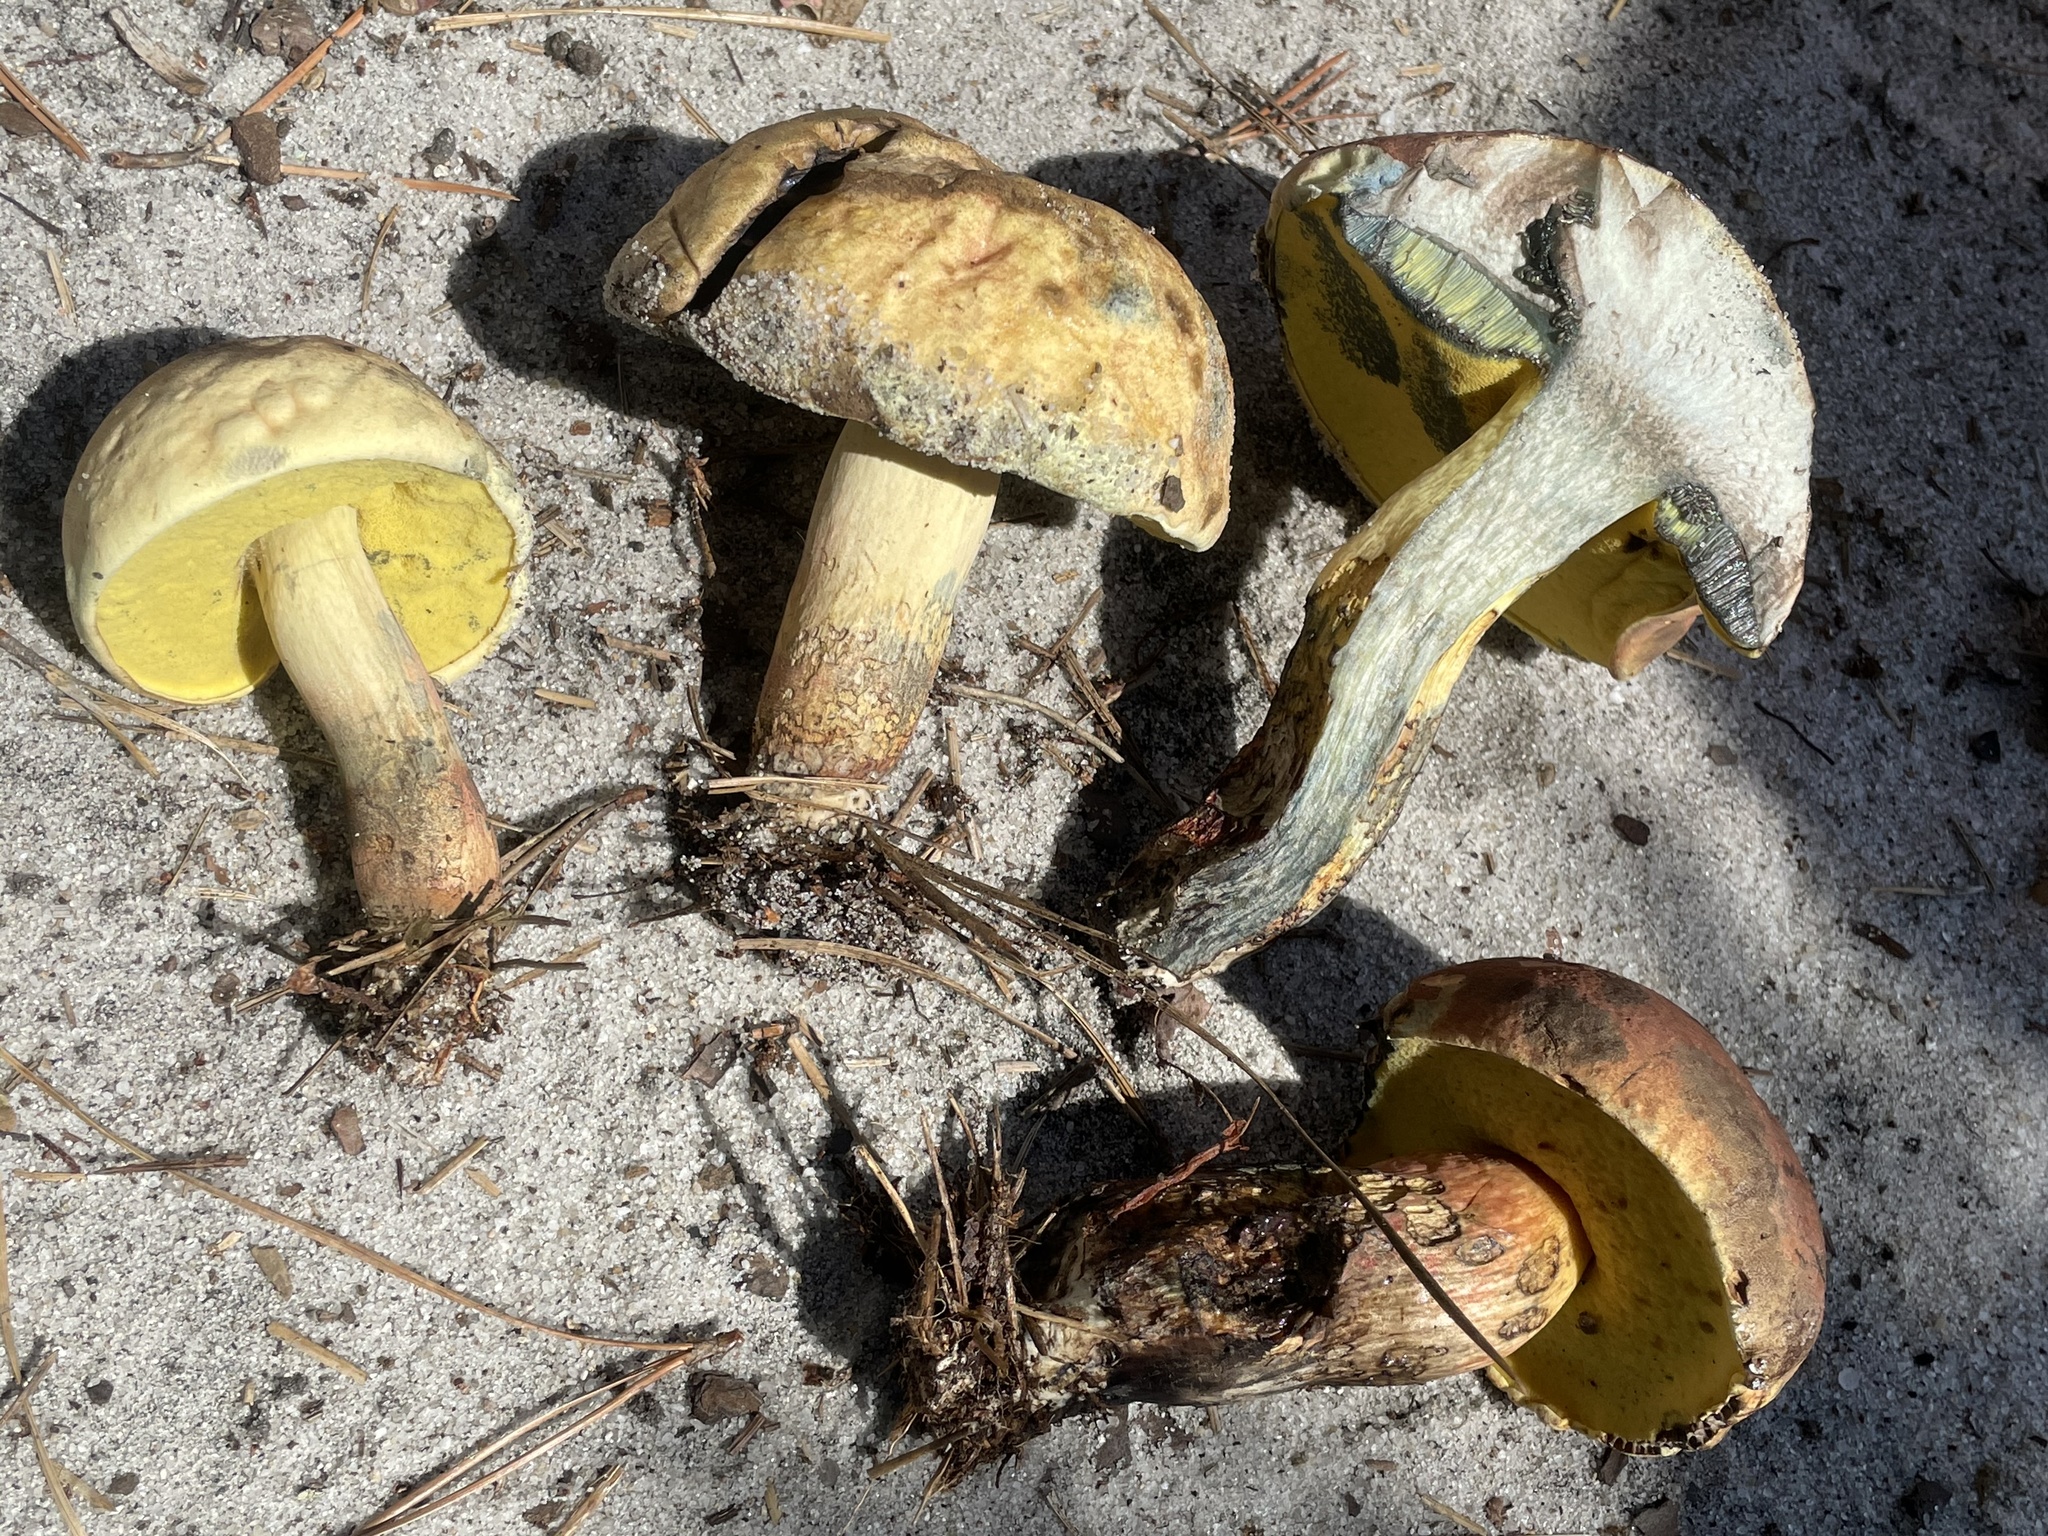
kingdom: Fungi
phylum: Basidiomycota
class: Agaricomycetes
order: Boletales
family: Boletaceae
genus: Boletus
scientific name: Boletus
